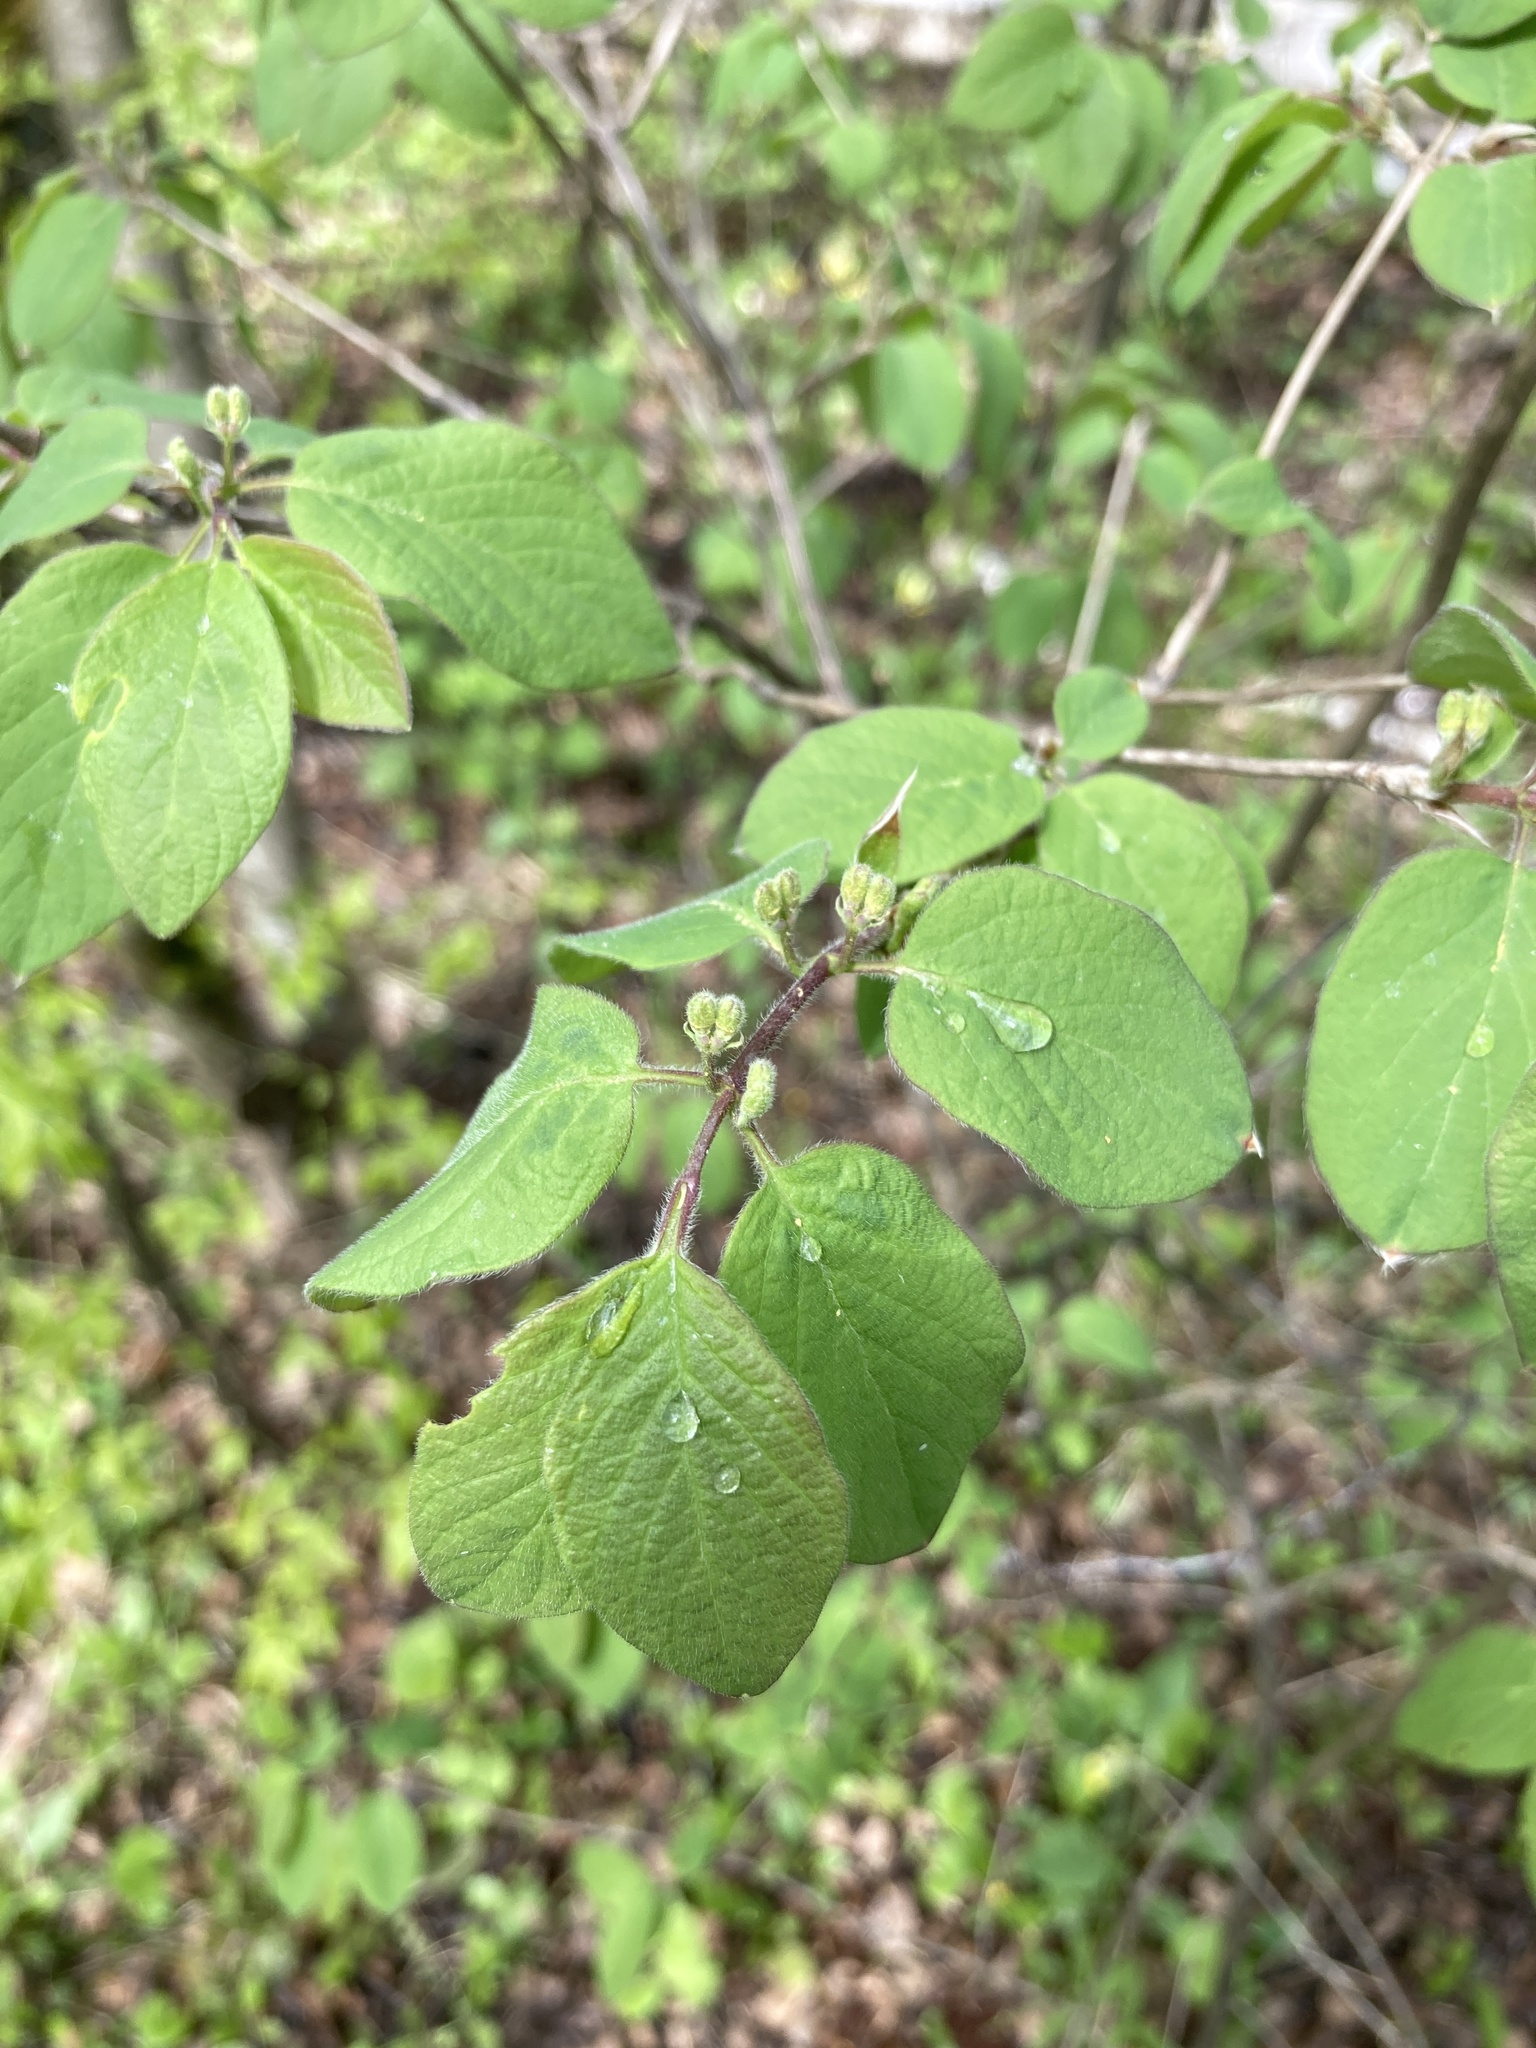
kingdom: Plantae
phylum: Tracheophyta
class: Magnoliopsida
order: Dipsacales
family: Caprifoliaceae
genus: Lonicera
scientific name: Lonicera xylosteum
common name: Fly honeysuckle
